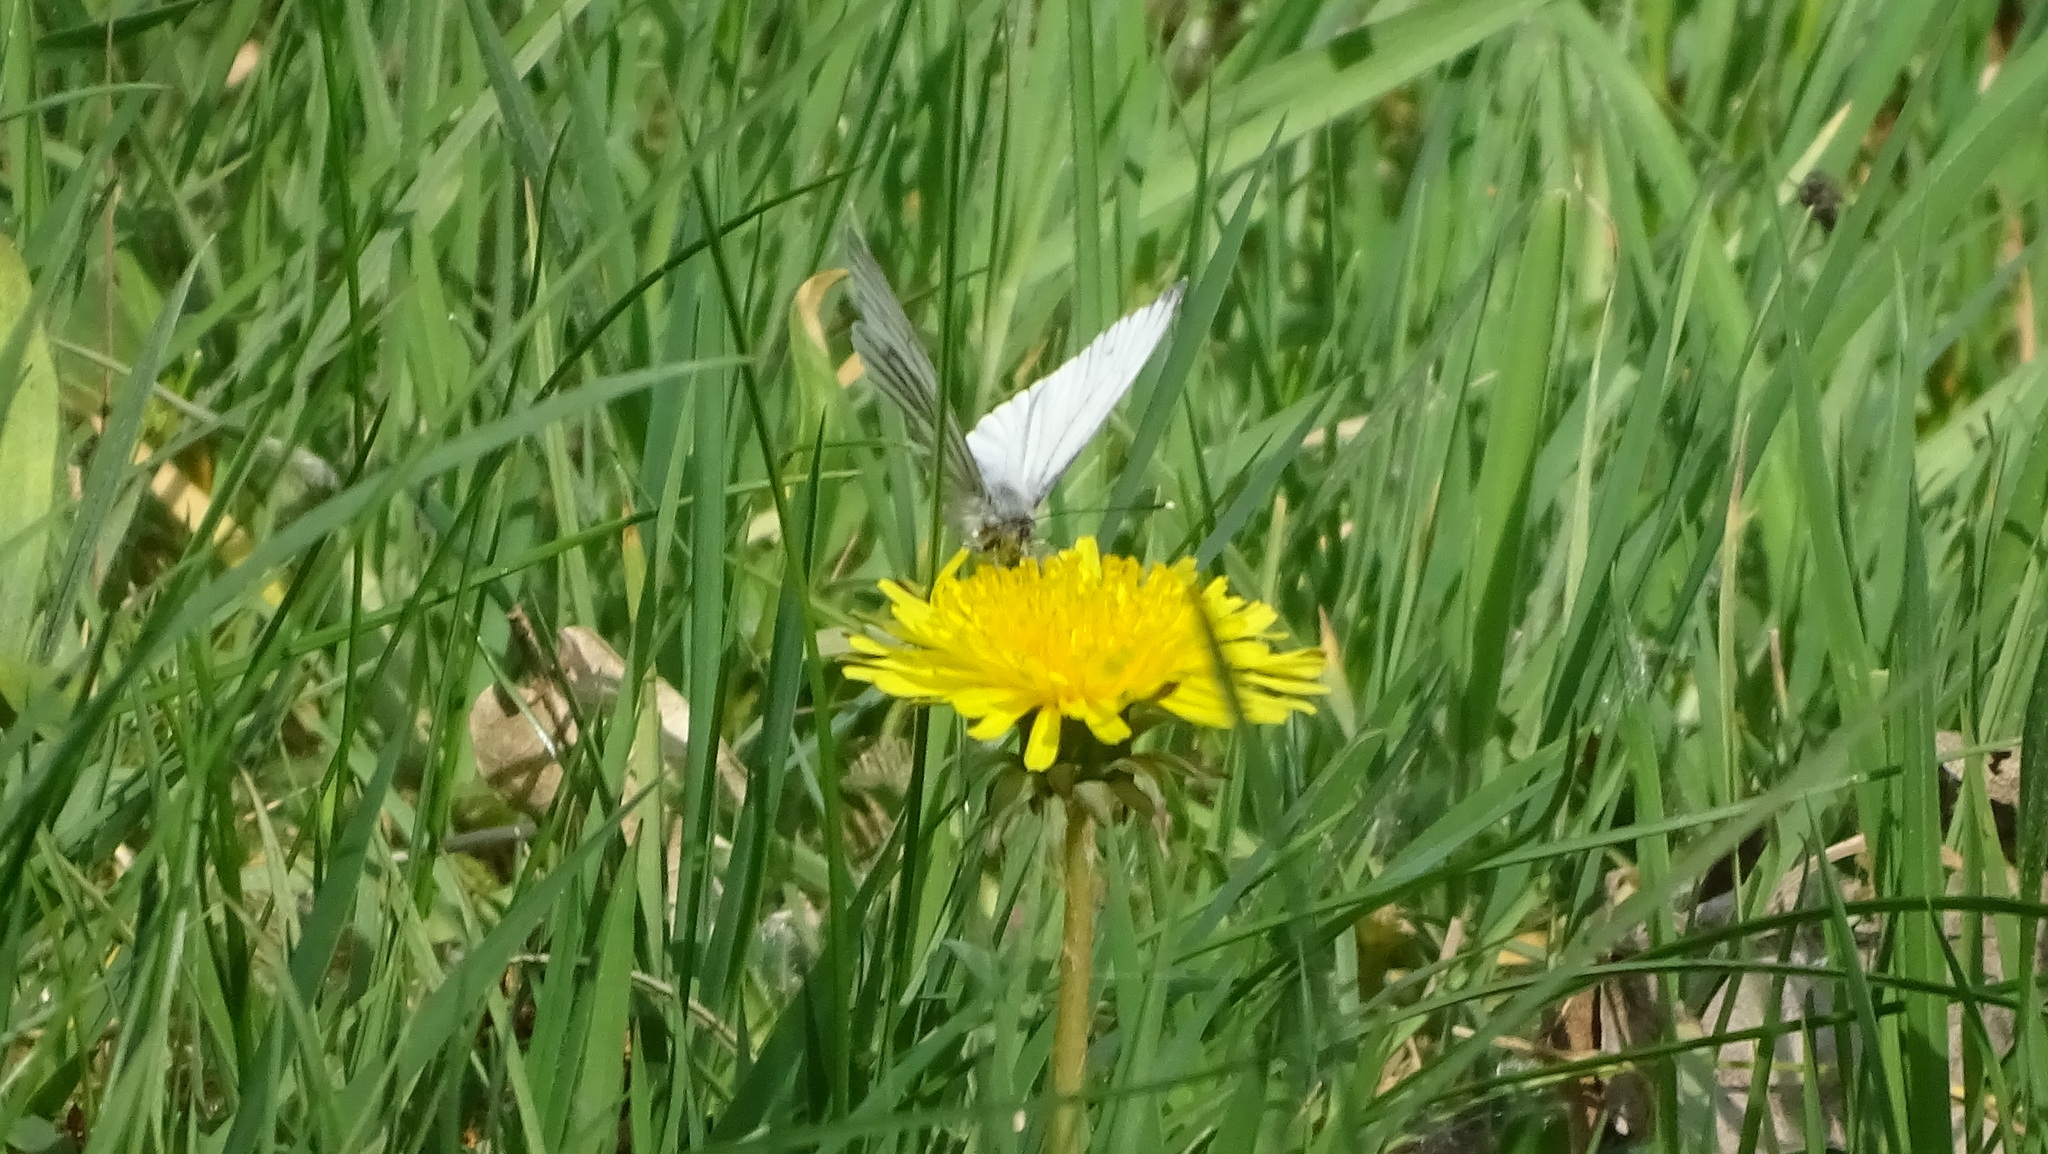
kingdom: Animalia
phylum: Arthropoda
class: Insecta
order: Lepidoptera
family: Pieridae
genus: Pieris
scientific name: Pieris napi
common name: Green-veined white
